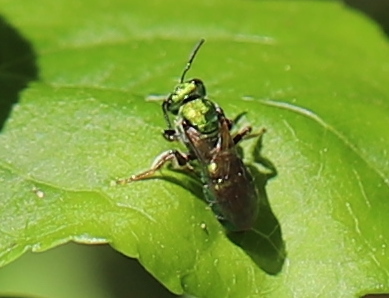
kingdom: Animalia
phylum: Arthropoda
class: Insecta
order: Hymenoptera
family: Halictidae
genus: Augochlora
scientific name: Augochlora pura
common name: Pure green sweat bee
